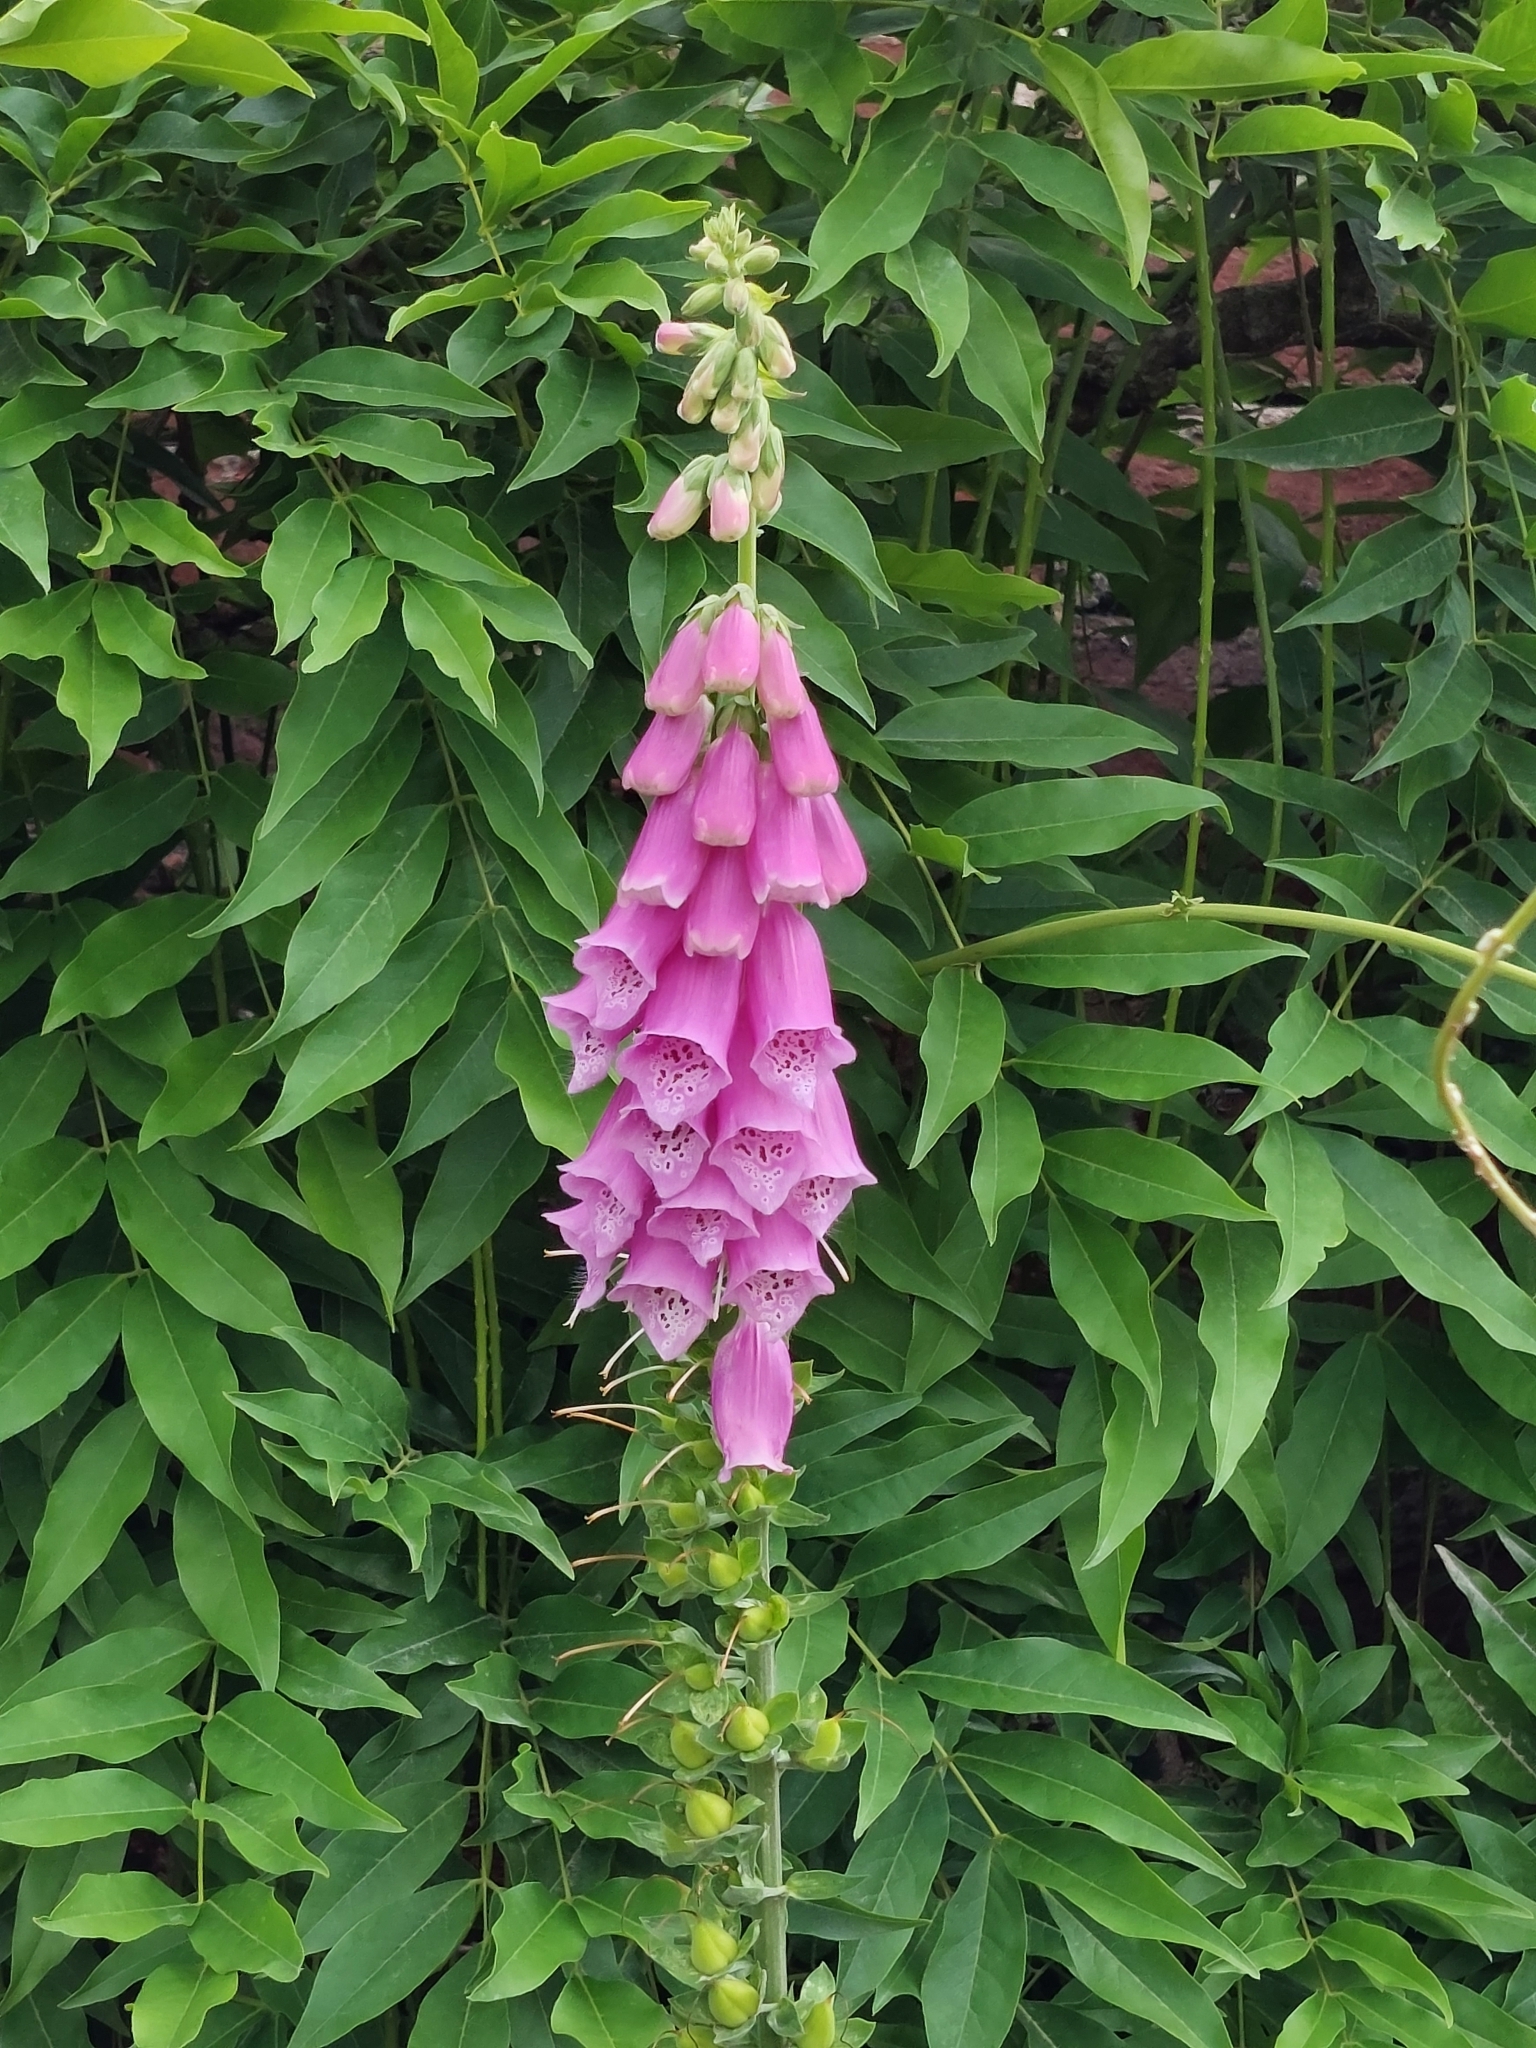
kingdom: Plantae
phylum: Tracheophyta
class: Magnoliopsida
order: Lamiales
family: Plantaginaceae
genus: Digitalis
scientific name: Digitalis purpurea
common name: Foxglove
